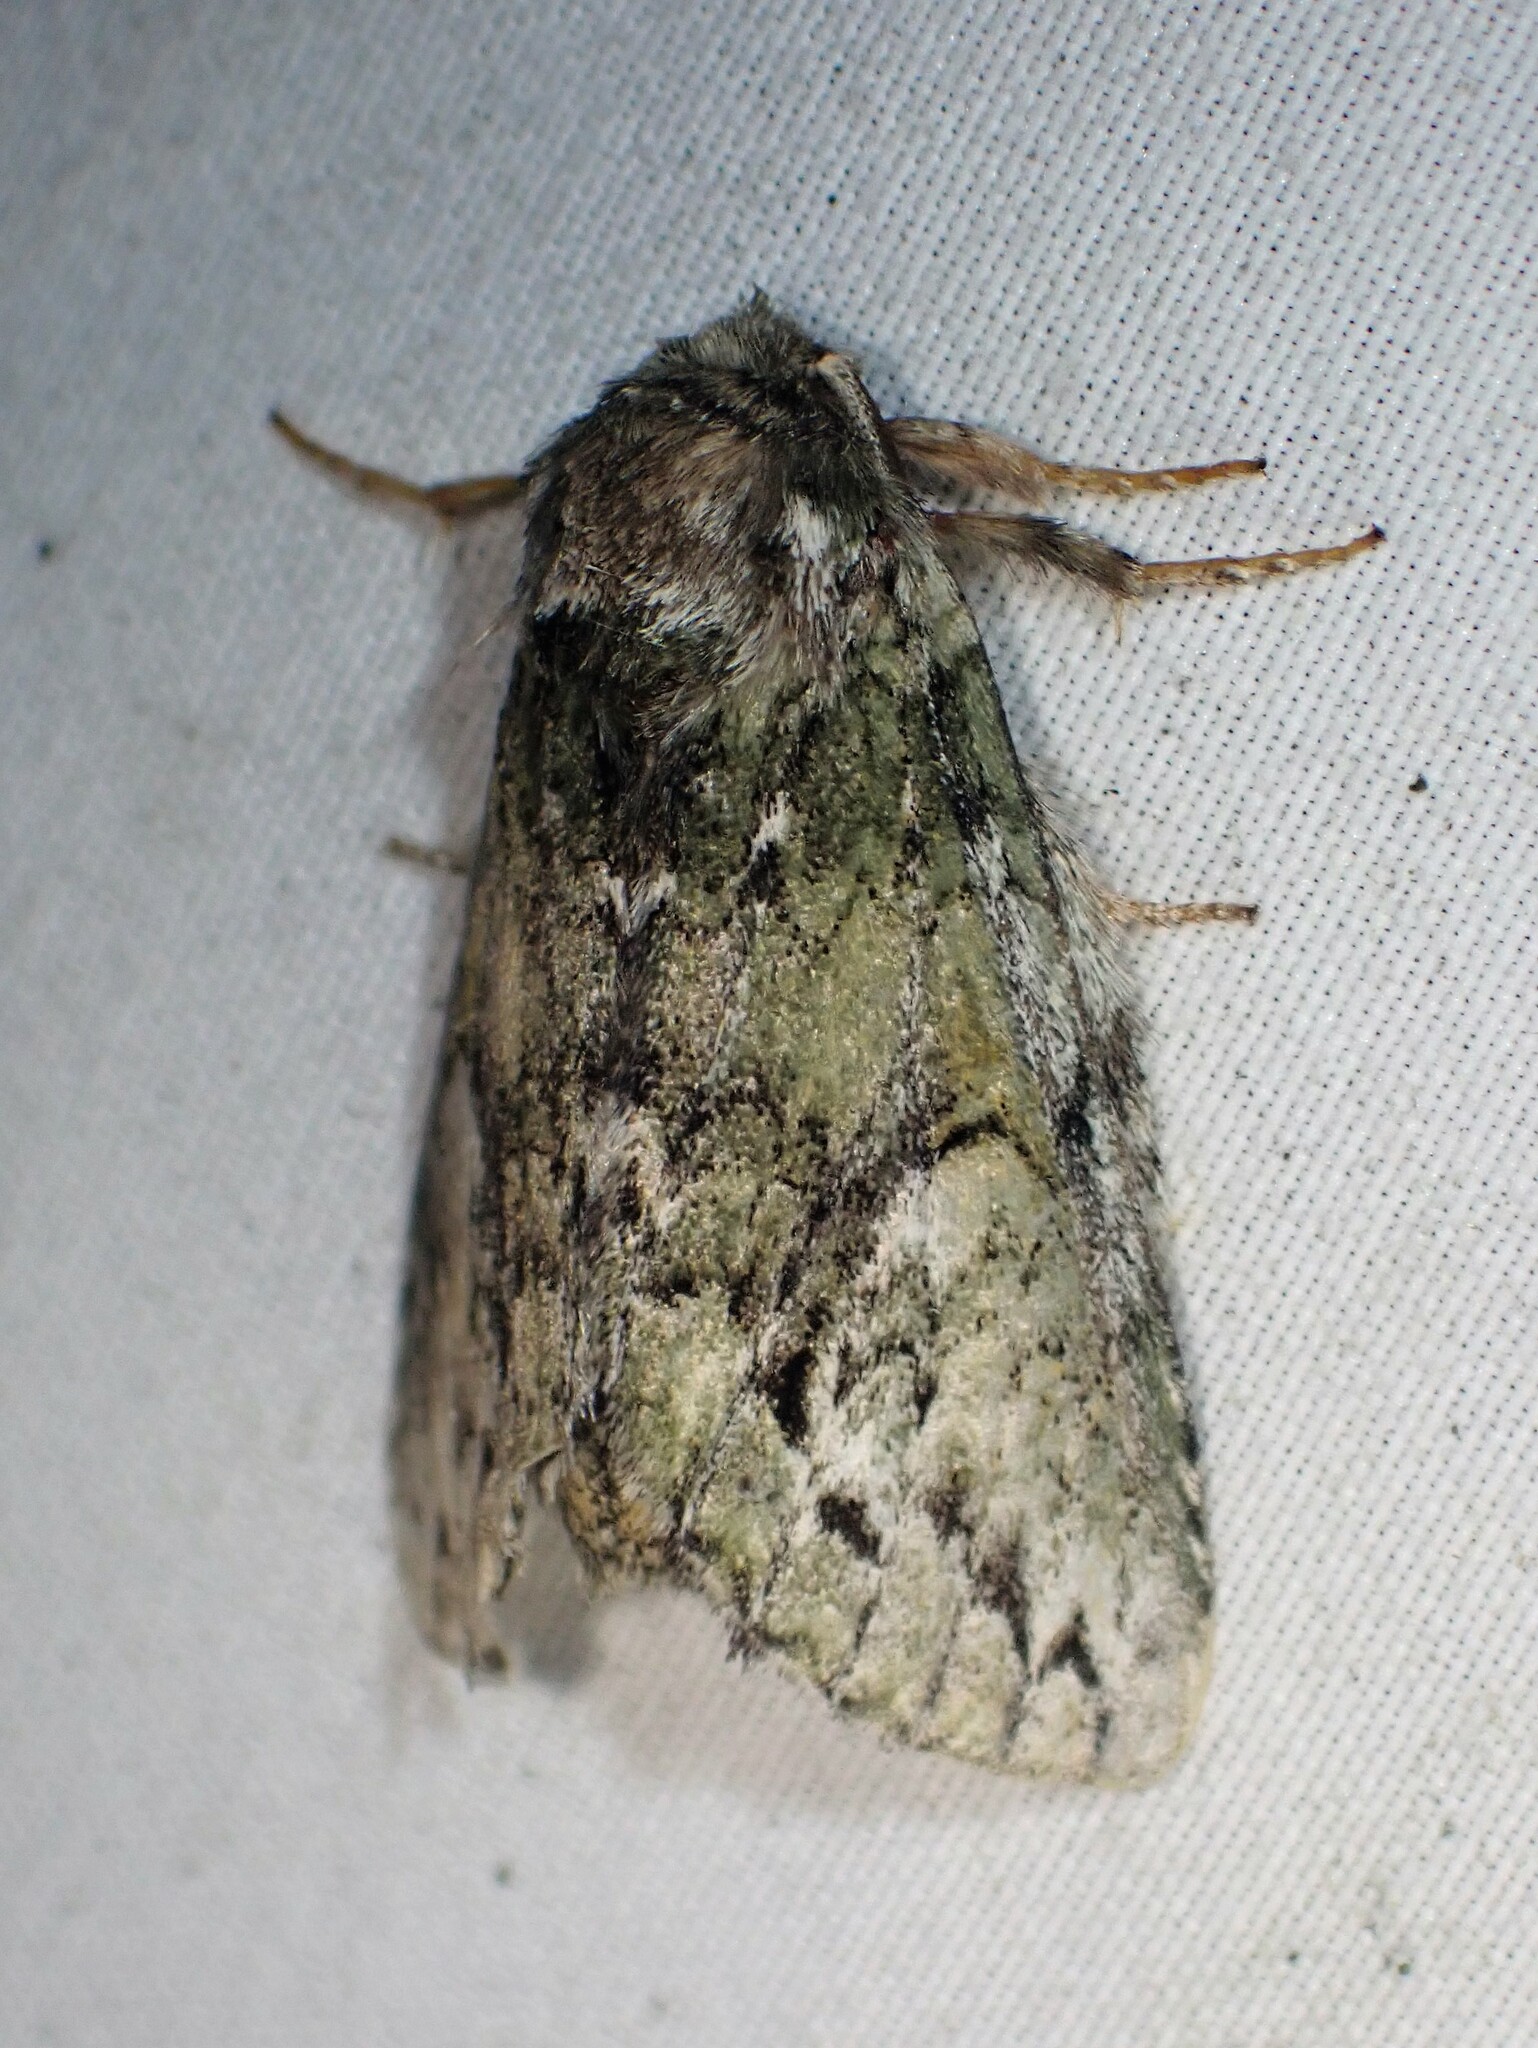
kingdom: Animalia
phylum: Arthropoda
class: Insecta
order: Lepidoptera
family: Notodontidae
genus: Heterocampa
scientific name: Heterocampa
